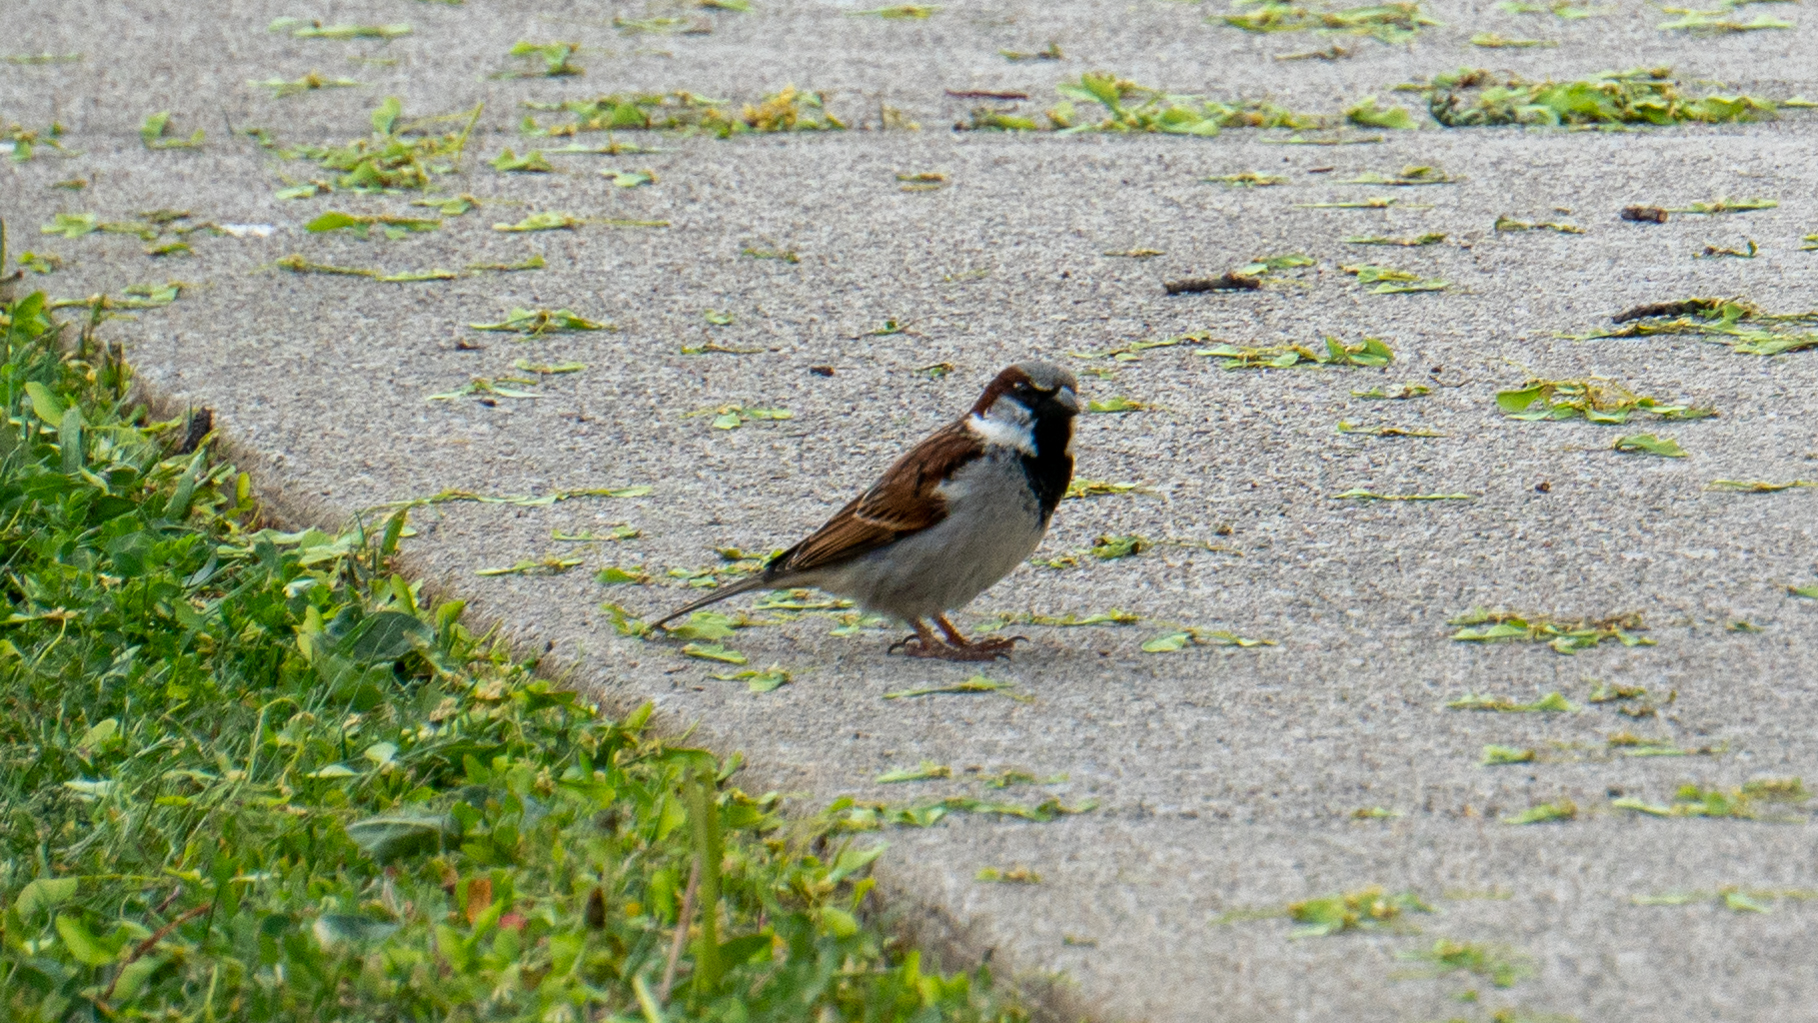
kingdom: Animalia
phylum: Chordata
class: Aves
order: Passeriformes
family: Passeridae
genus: Passer
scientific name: Passer domesticus
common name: House sparrow
